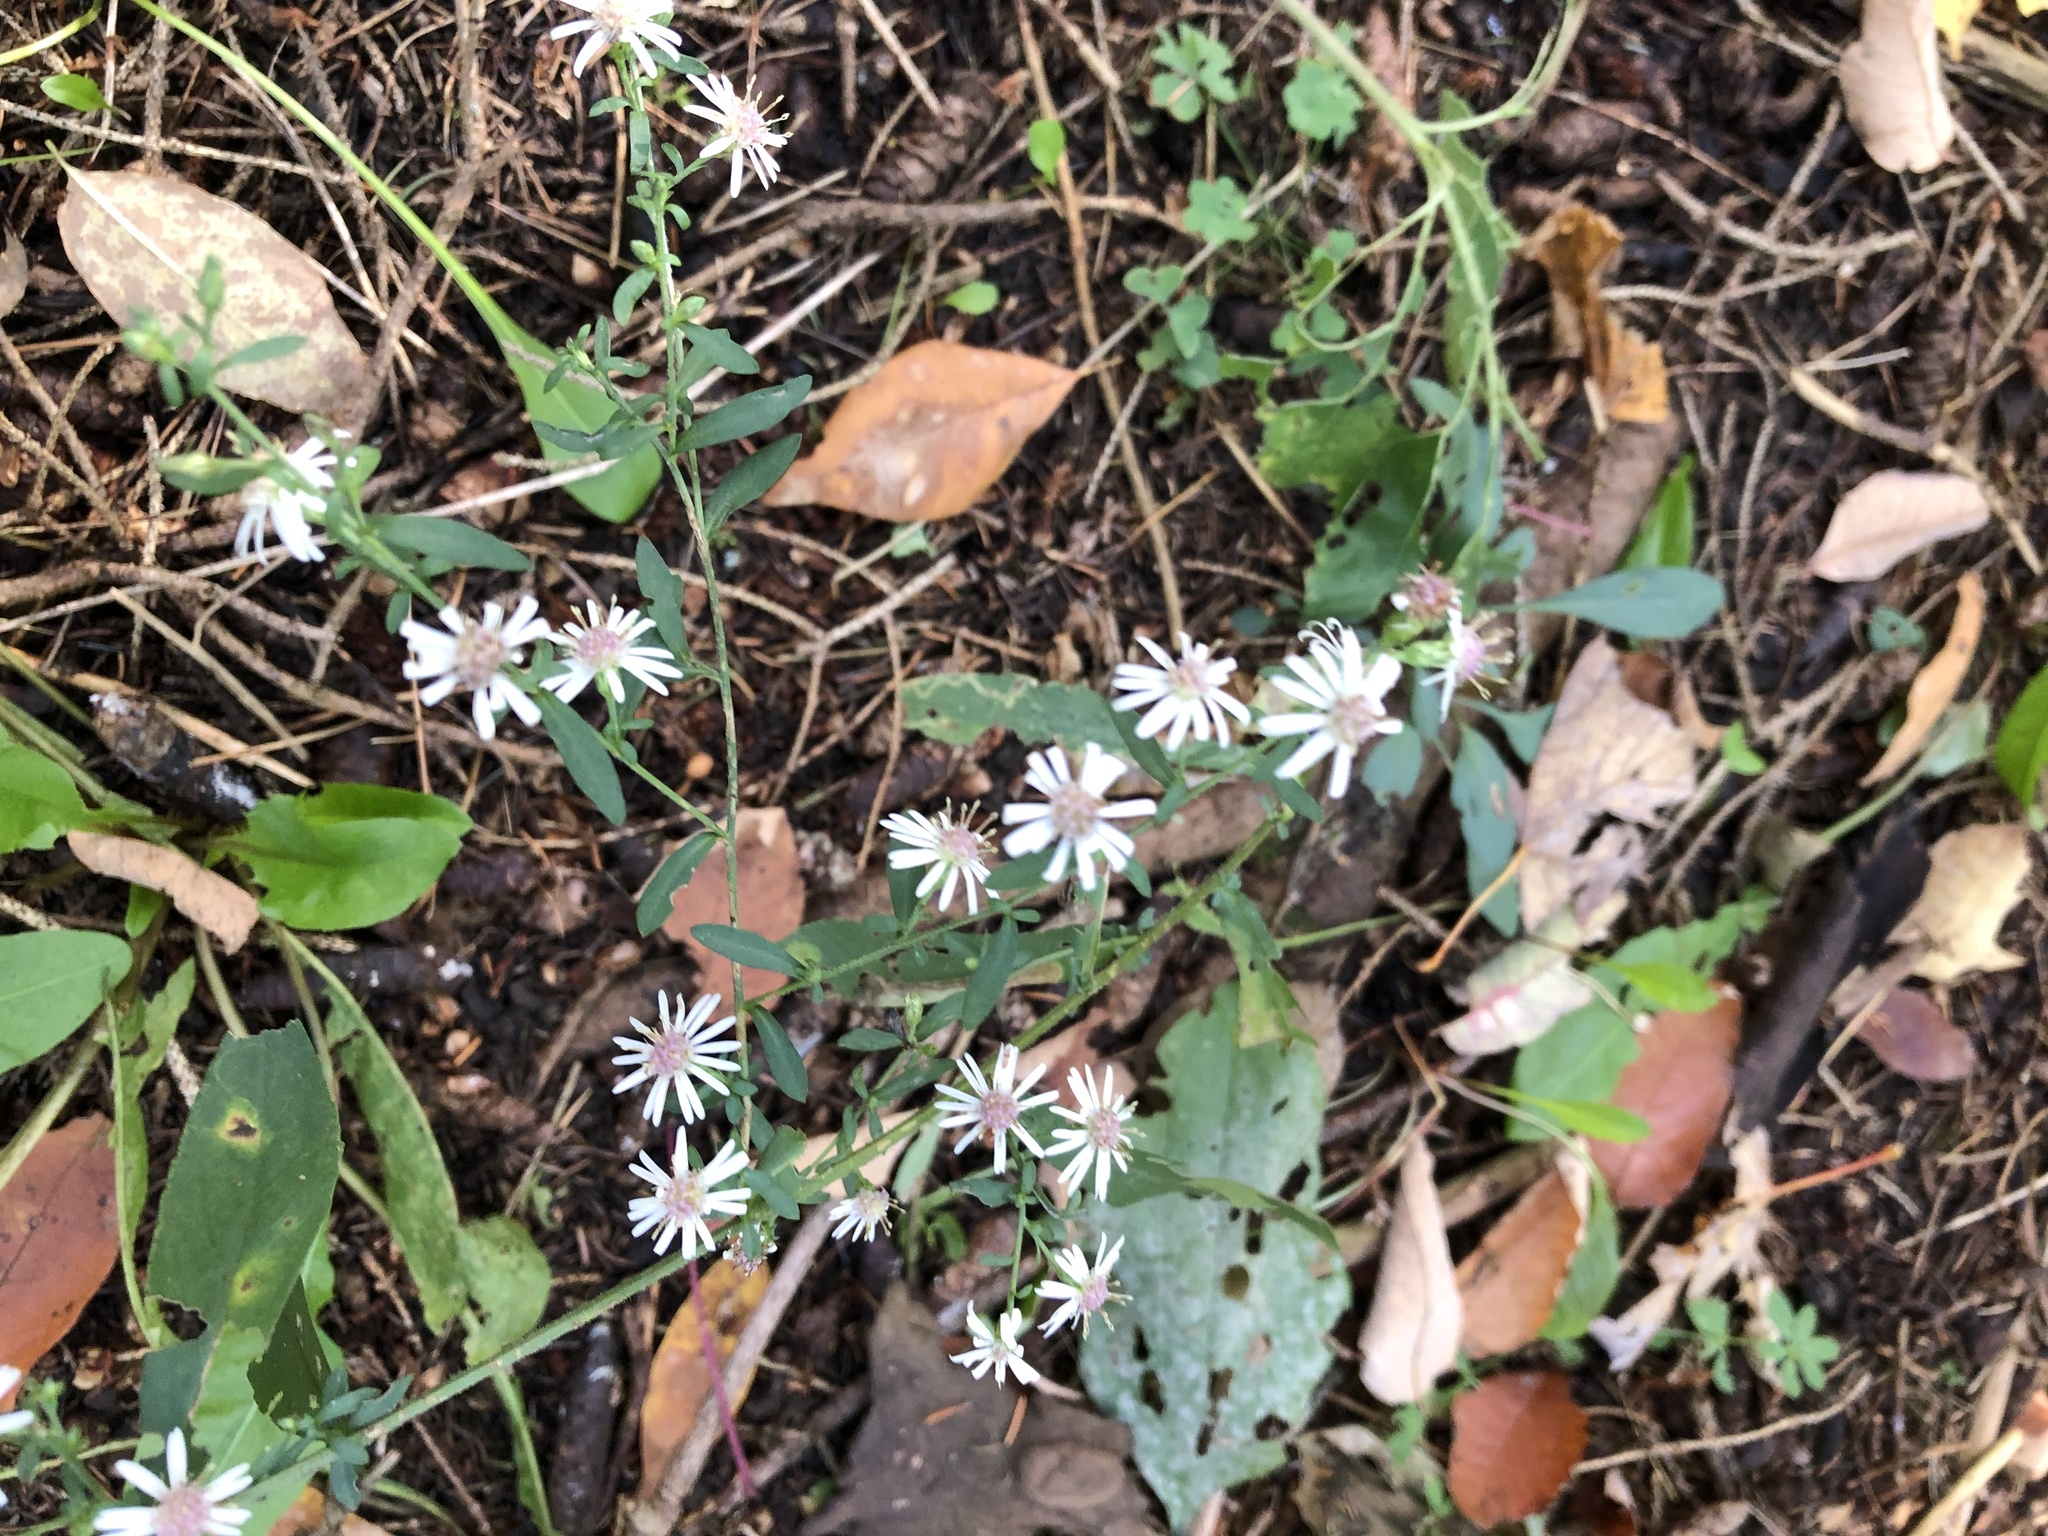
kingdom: Plantae
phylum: Tracheophyta
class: Magnoliopsida
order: Asterales
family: Asteraceae
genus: Symphyotrichum
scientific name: Symphyotrichum lateriflorum
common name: Calico aster
